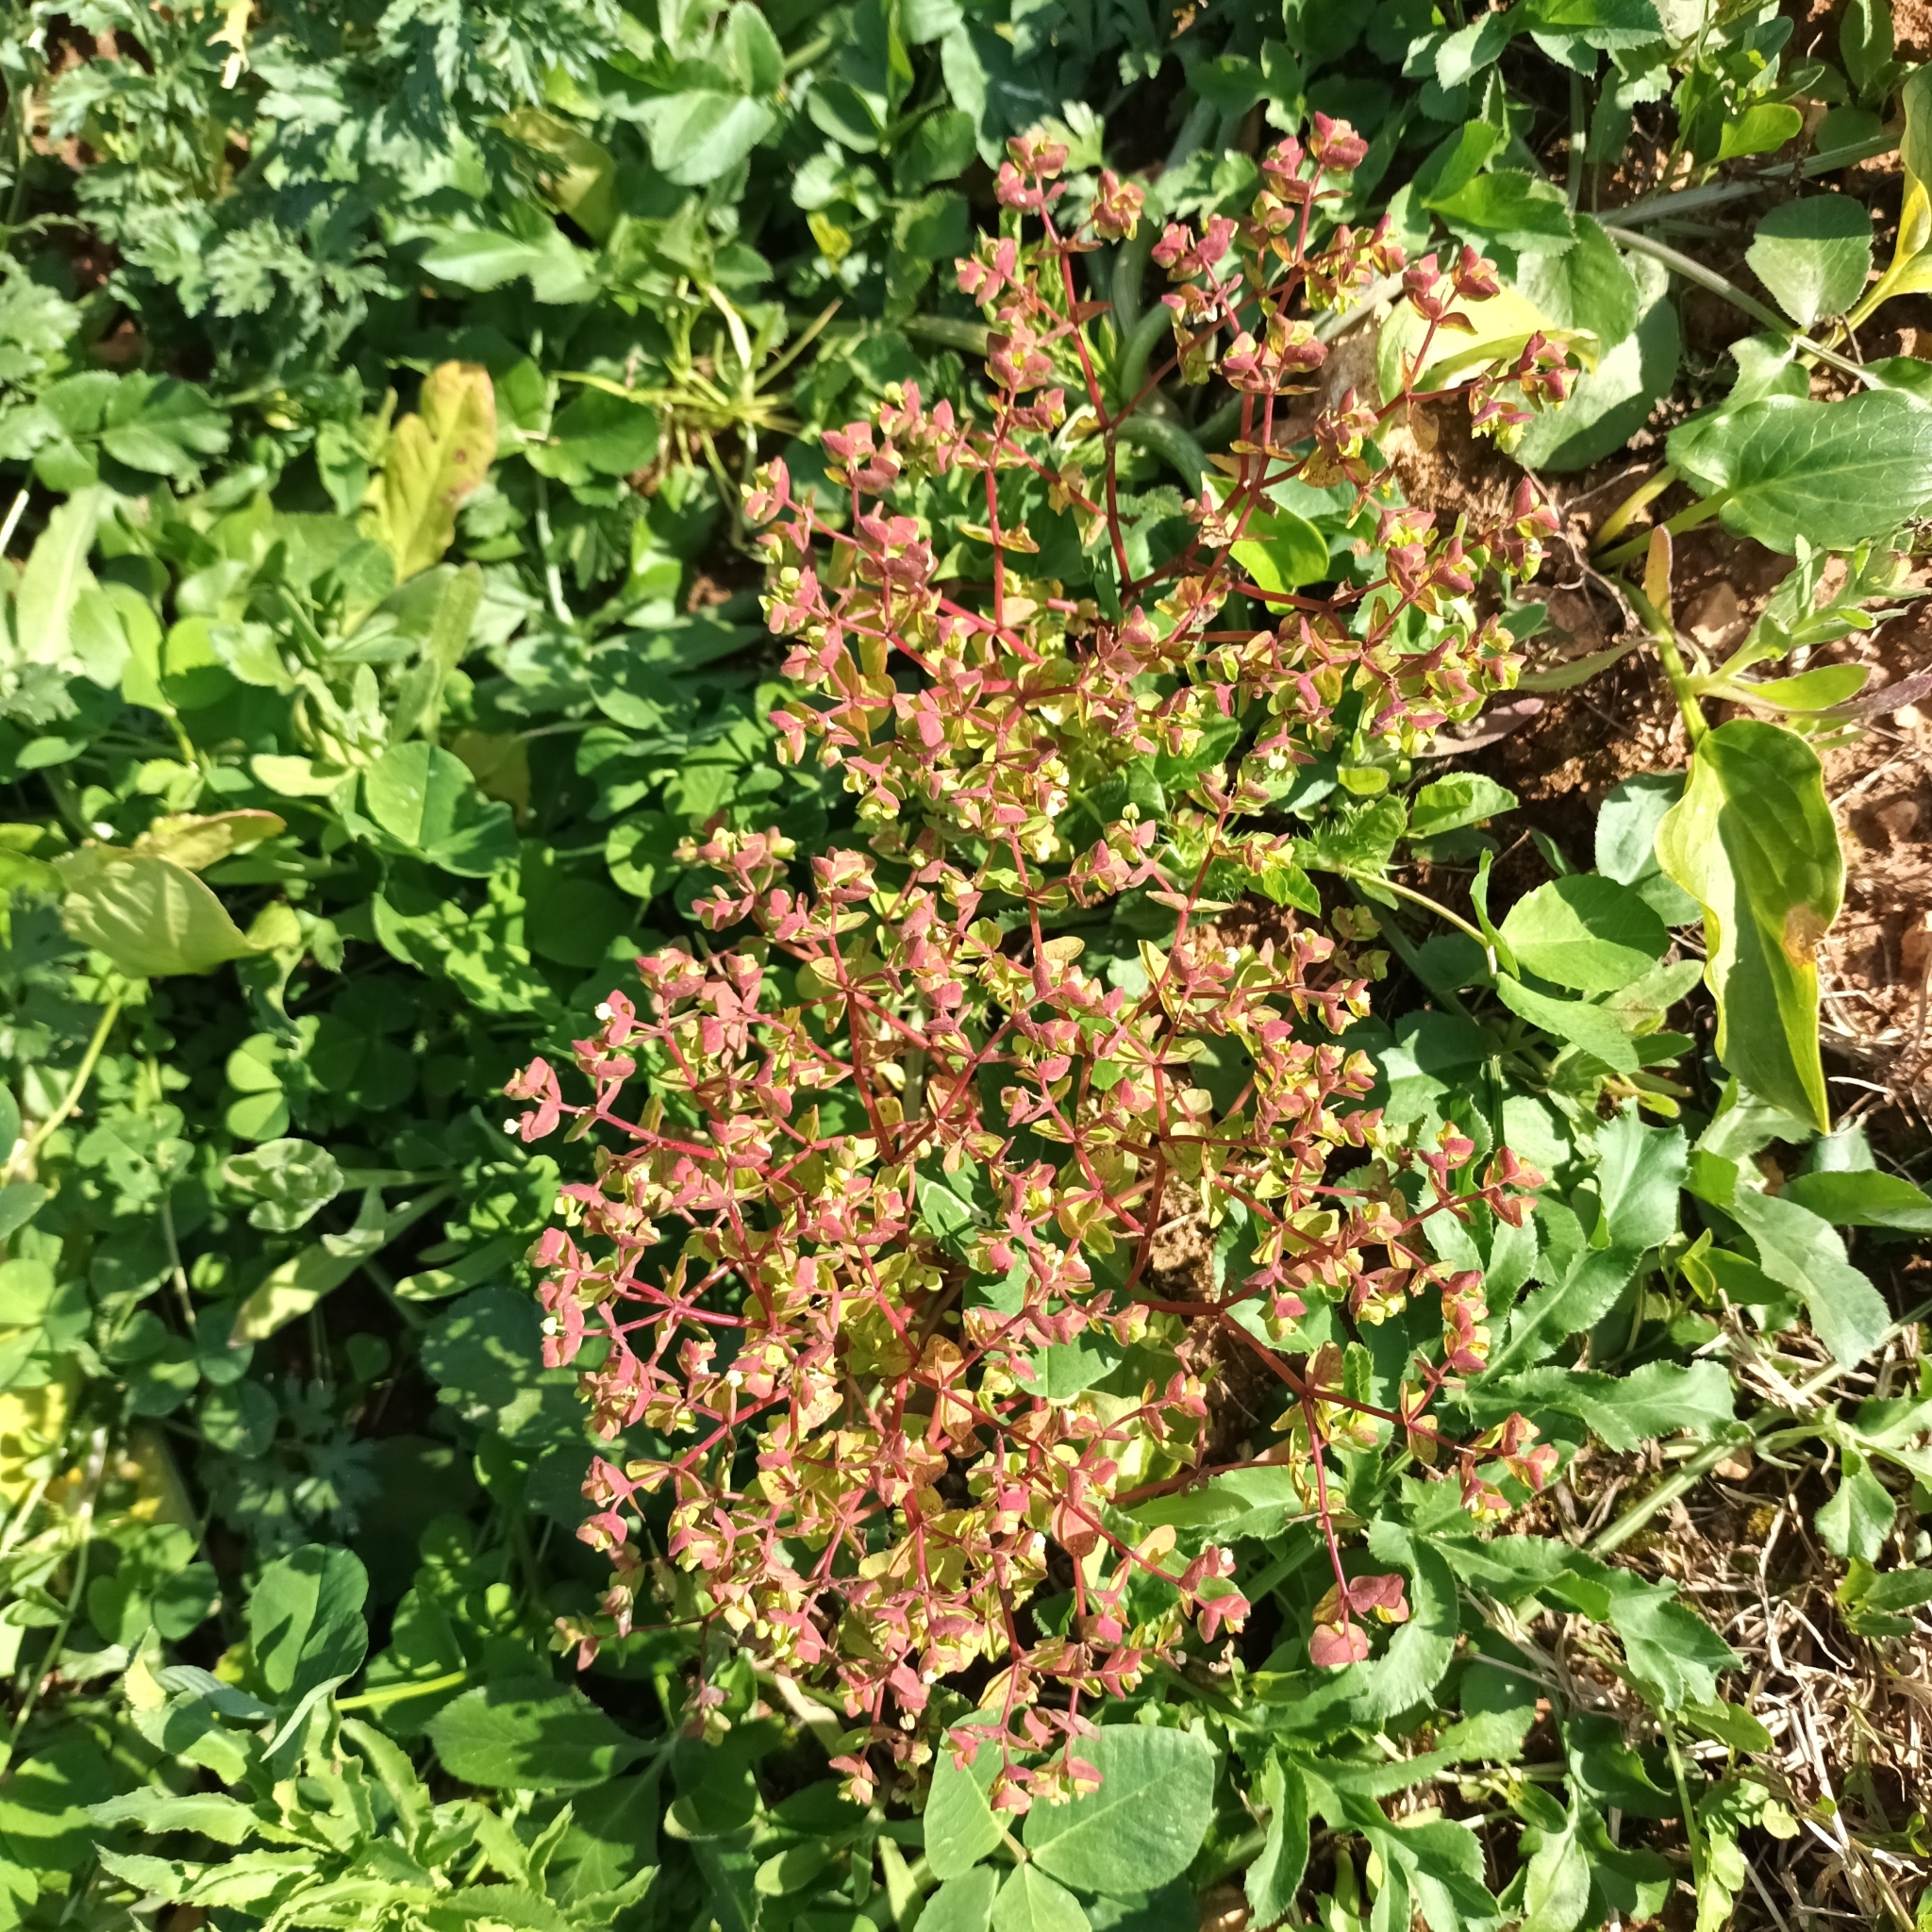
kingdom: Plantae
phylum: Tracheophyta
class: Magnoliopsida
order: Malpighiales
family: Euphorbiaceae
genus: Euphorbia
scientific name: Euphorbia peplus
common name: Petty spurge
